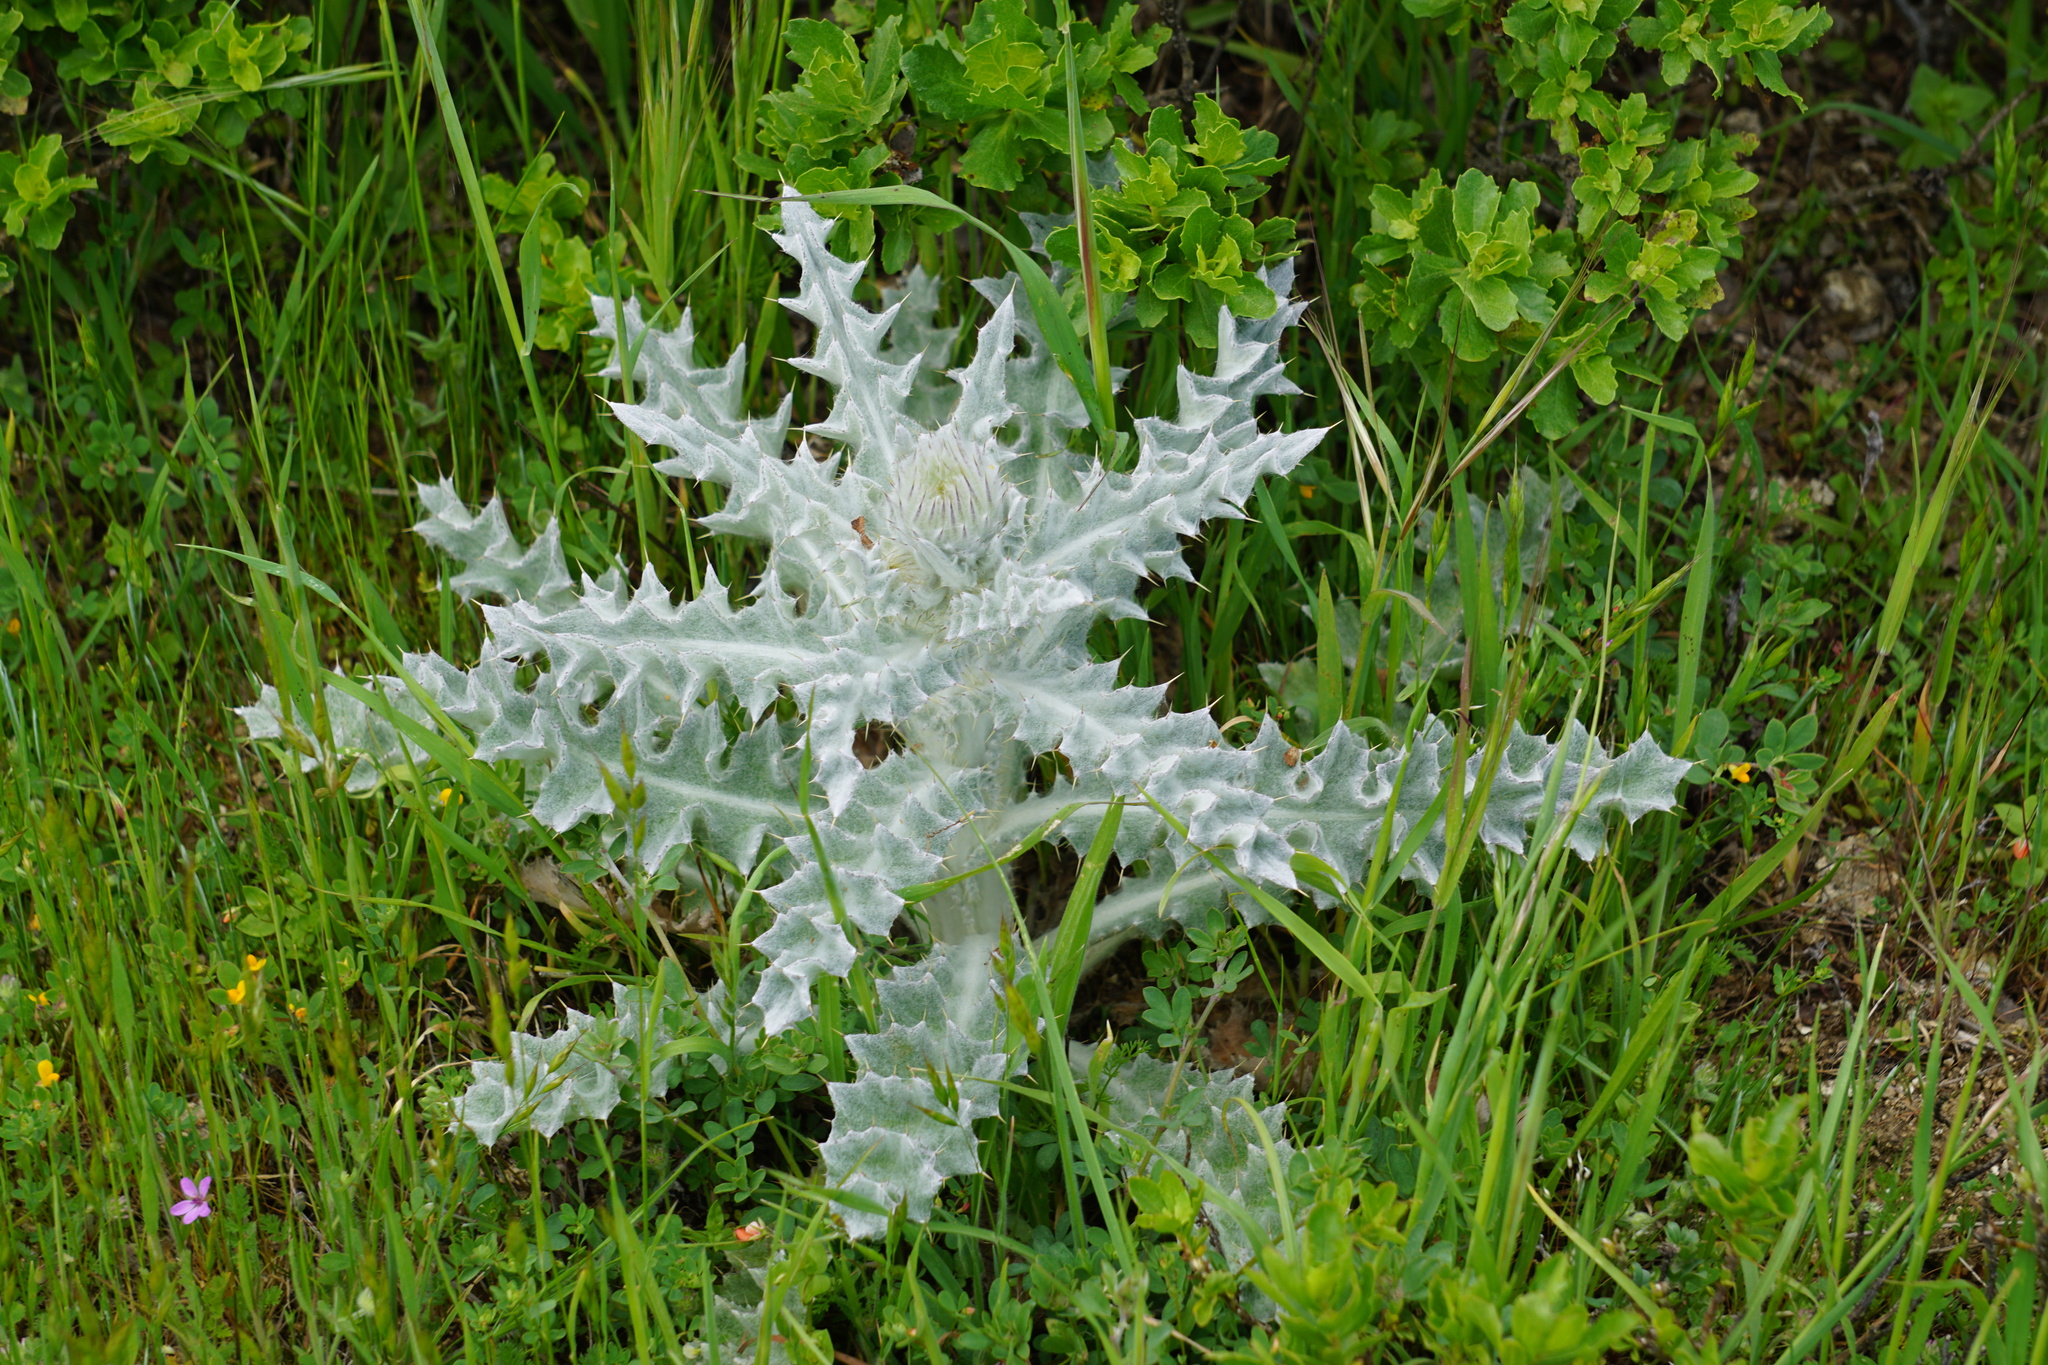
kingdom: Plantae
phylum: Tracheophyta
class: Magnoliopsida
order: Asterales
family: Asteraceae
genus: Cirsium
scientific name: Cirsium occidentale
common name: Western thistle
